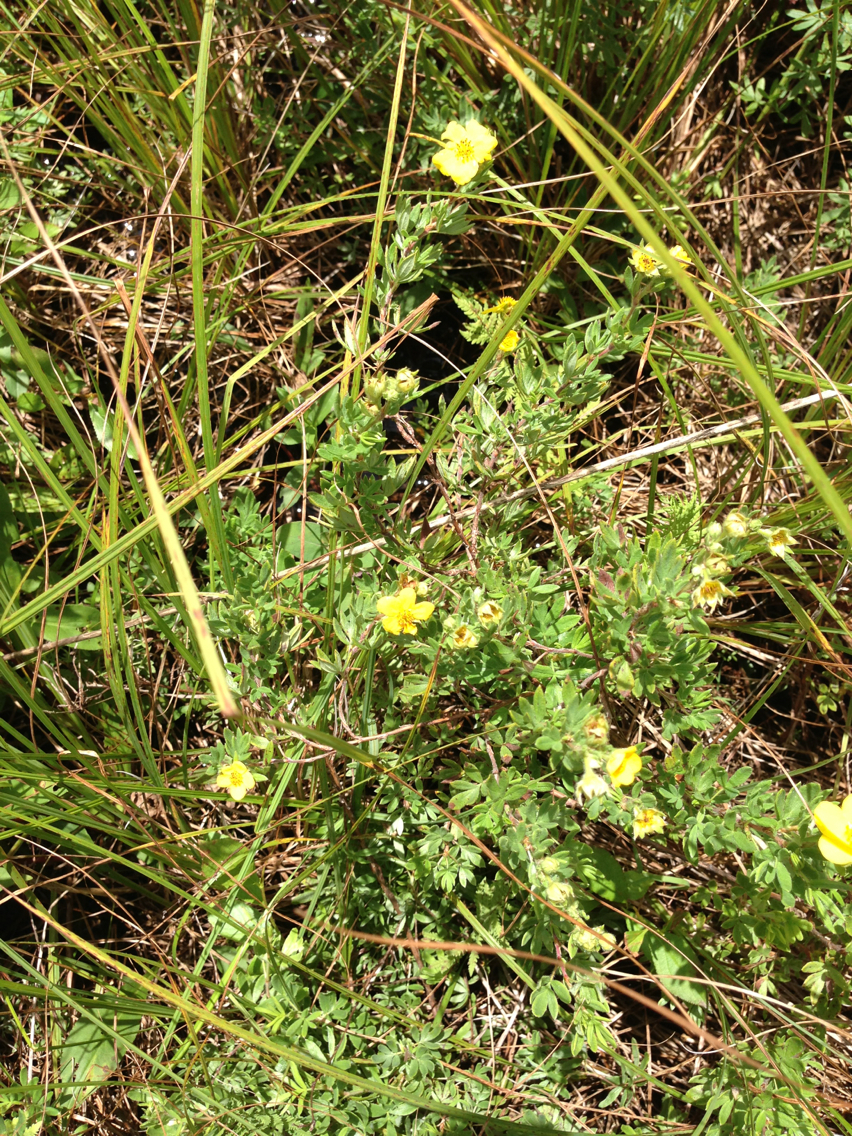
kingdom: Plantae
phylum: Tracheophyta
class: Magnoliopsida
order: Rosales
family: Rosaceae
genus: Dasiphora
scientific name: Dasiphora fruticosa
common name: Shrubby cinquefoil
